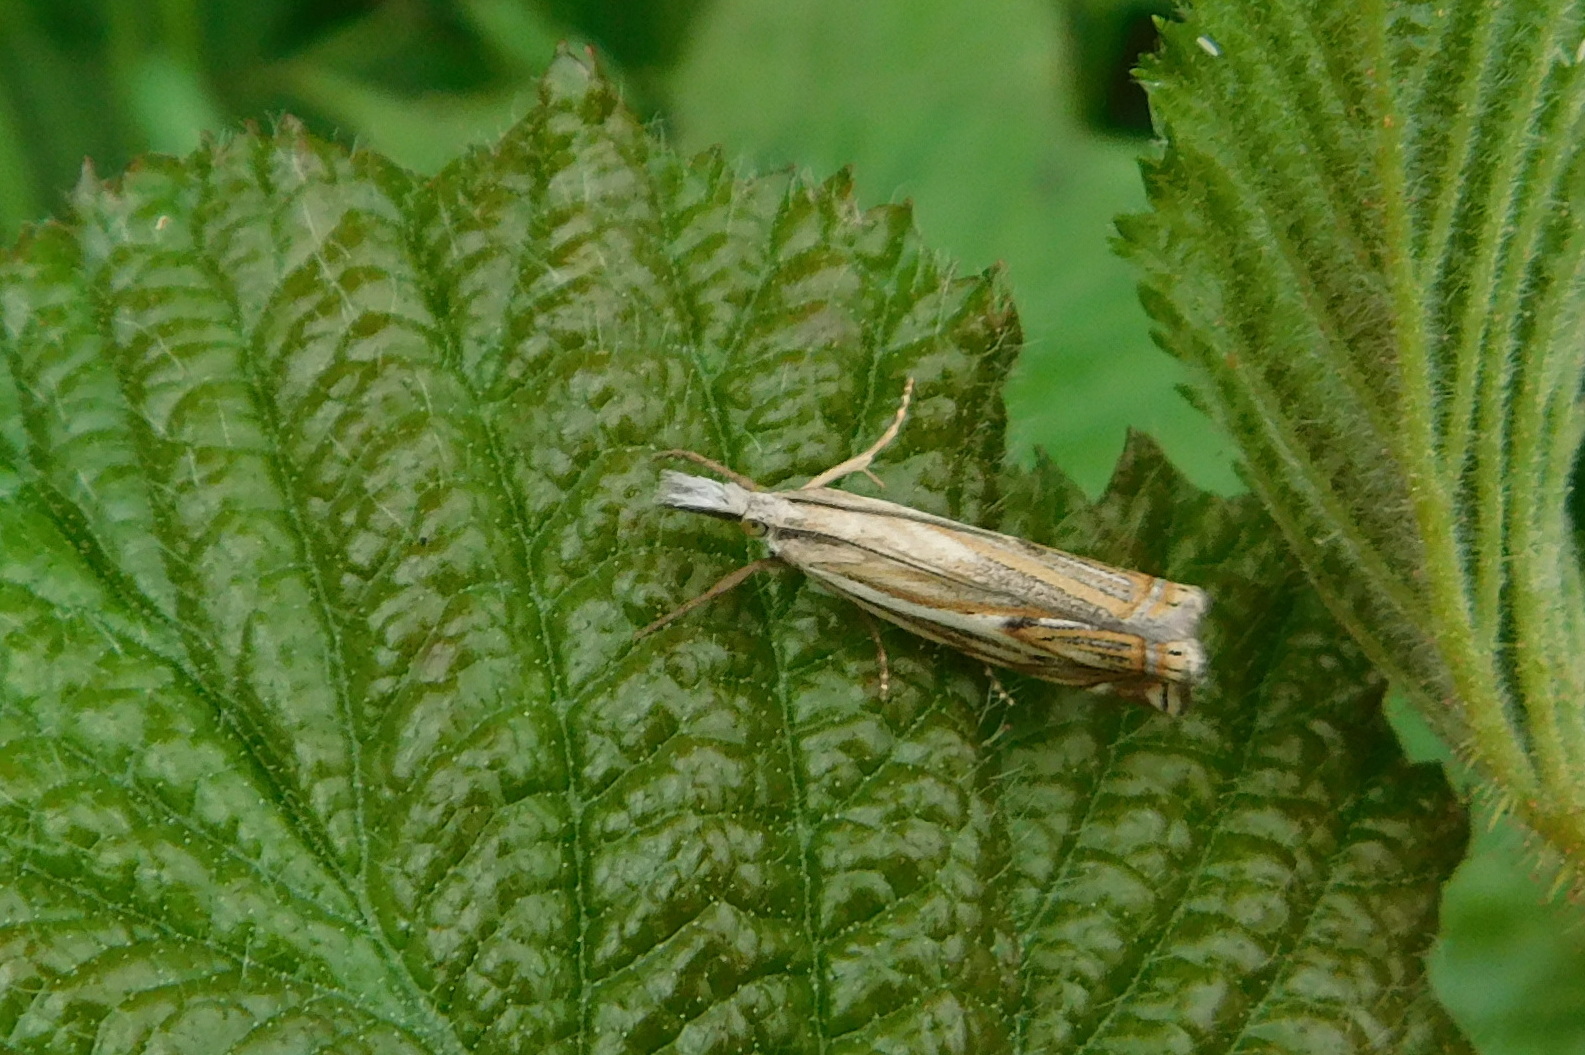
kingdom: Animalia
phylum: Arthropoda
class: Insecta
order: Lepidoptera
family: Crambidae
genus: Crambus
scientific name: Crambus nemorella
